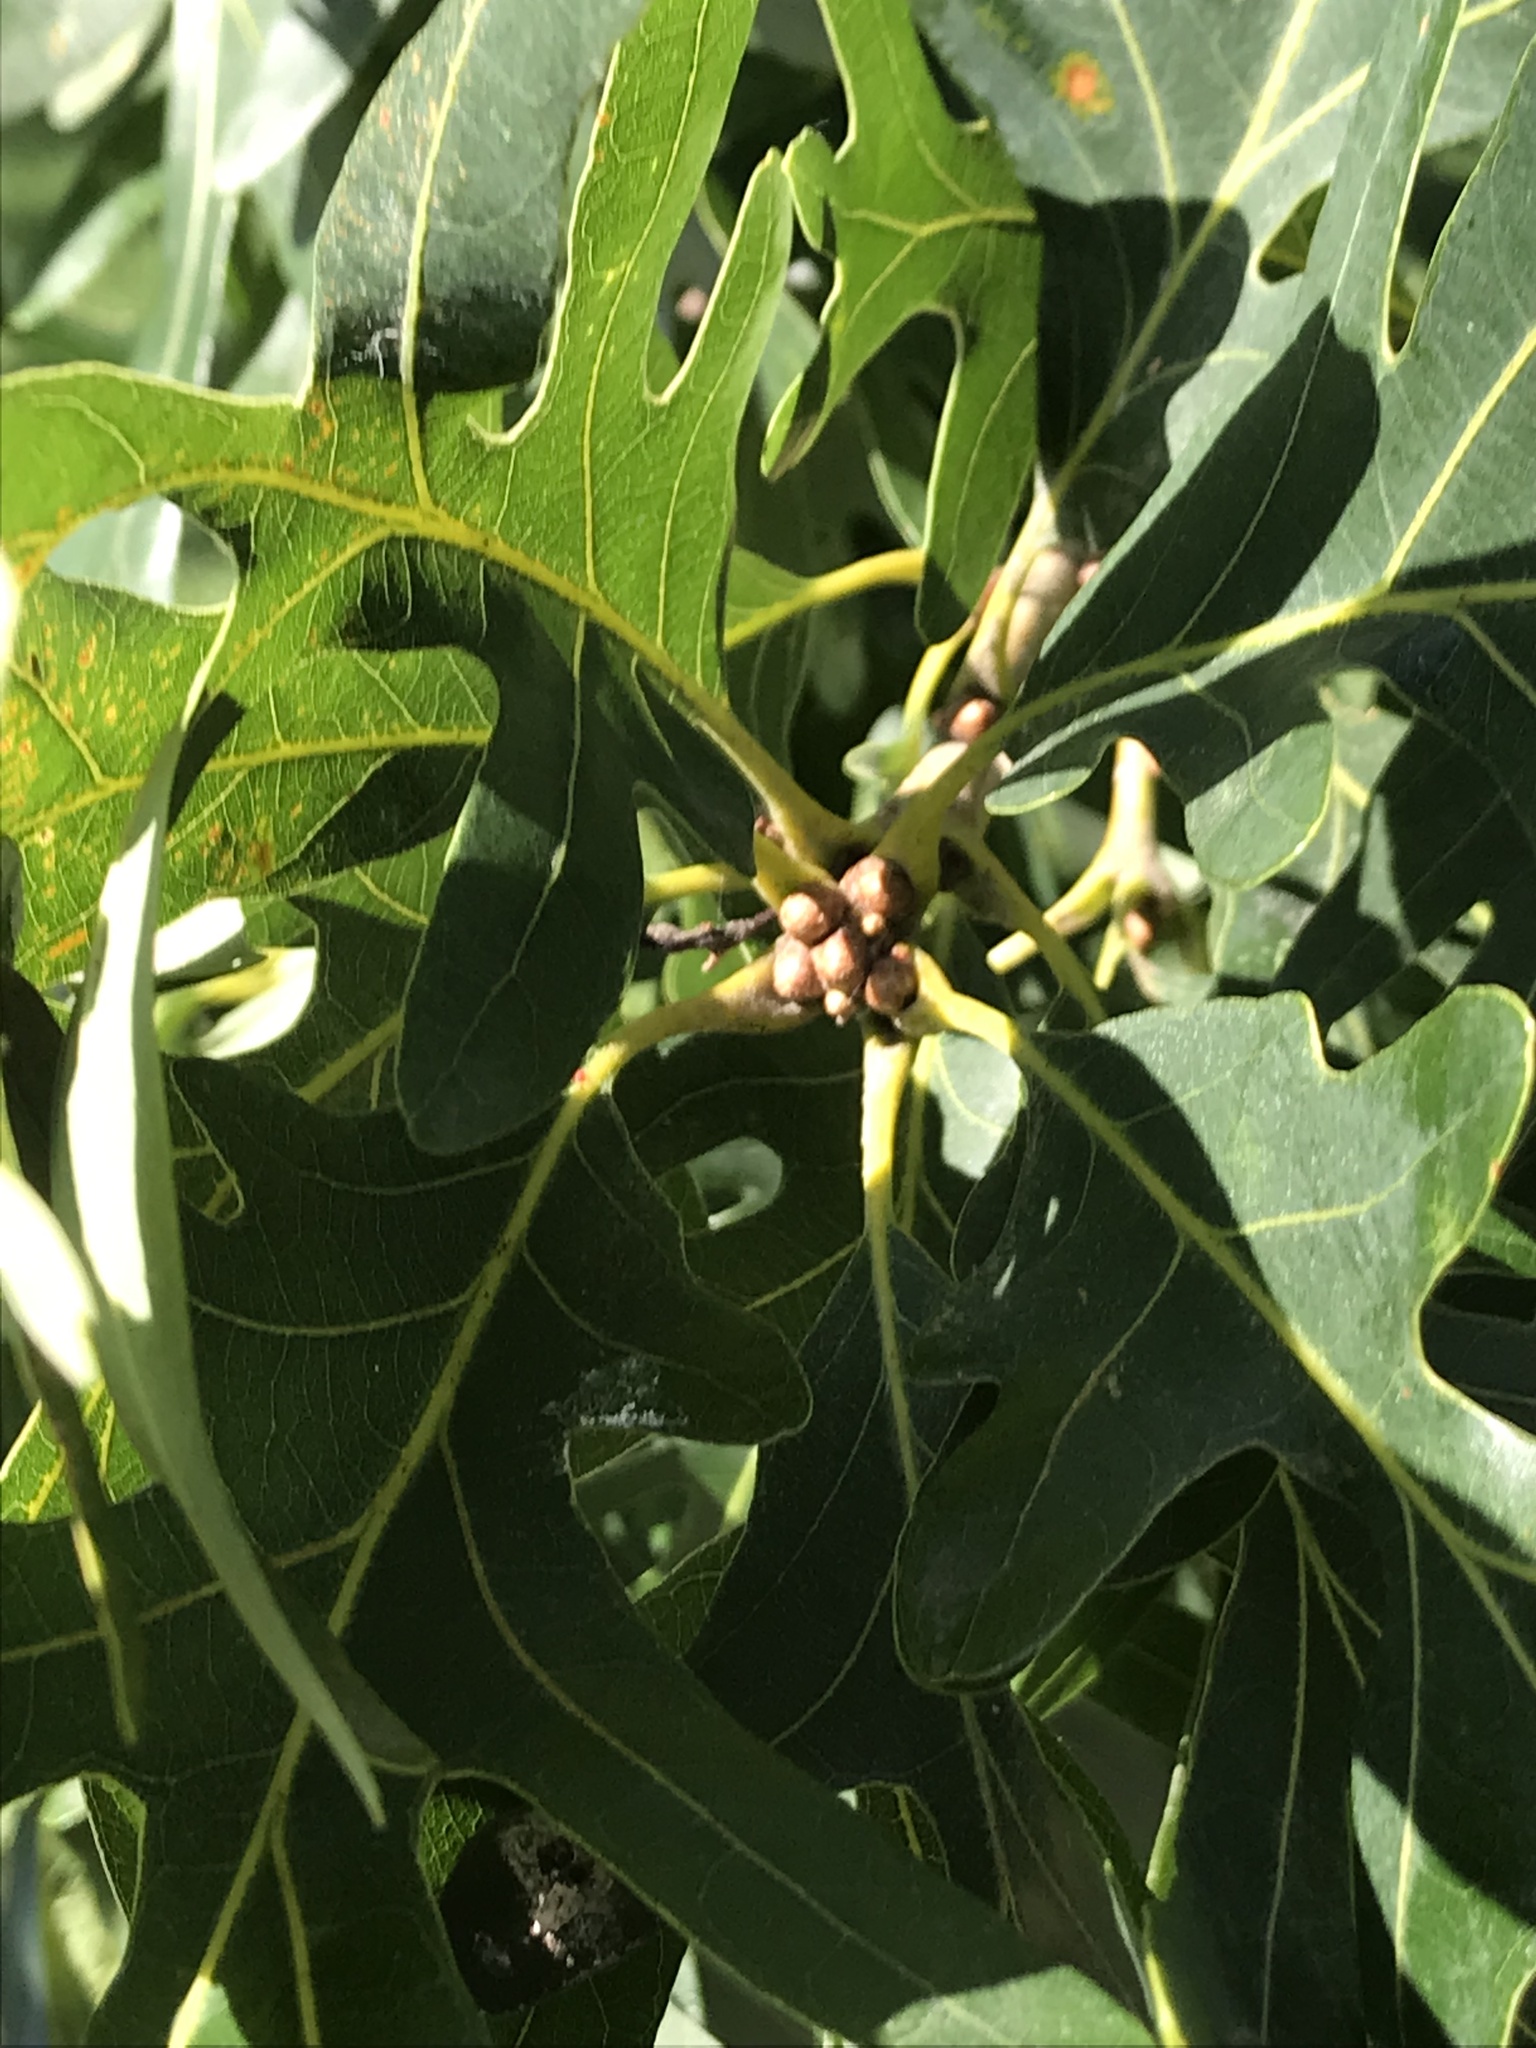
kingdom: Plantae
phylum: Tracheophyta
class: Magnoliopsida
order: Fagales
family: Fagaceae
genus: Quercus
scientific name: Quercus alba
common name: White oak
